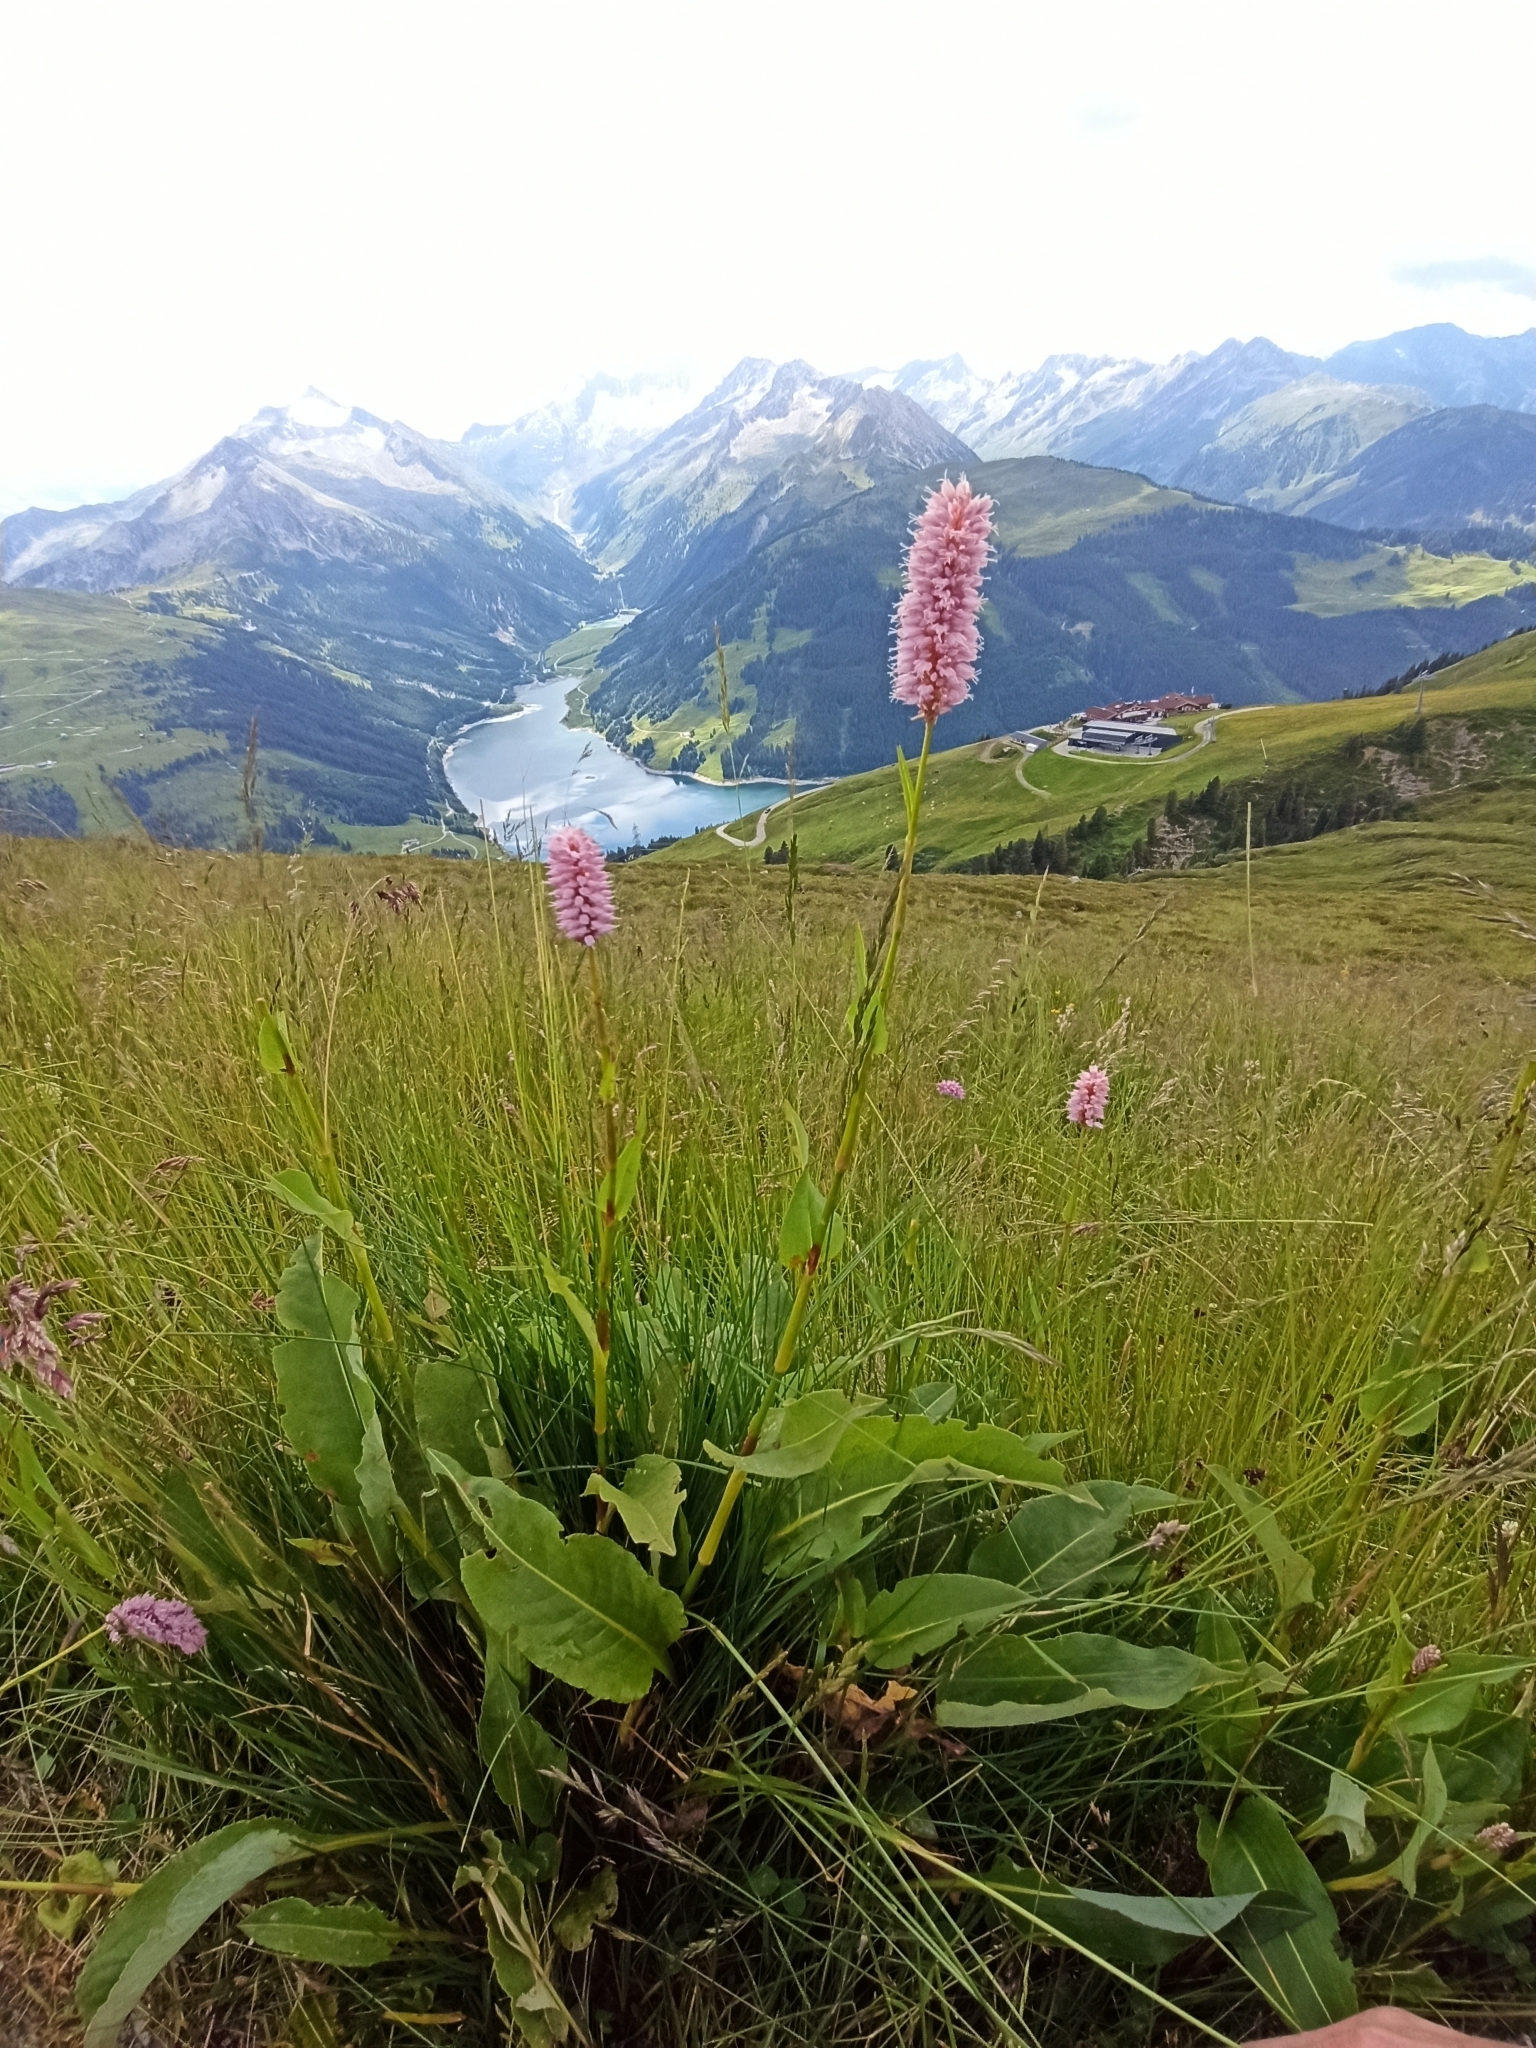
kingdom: Plantae
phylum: Tracheophyta
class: Magnoliopsida
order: Caryophyllales
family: Polygonaceae
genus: Bistorta
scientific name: Bistorta officinalis
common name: Common bistort
